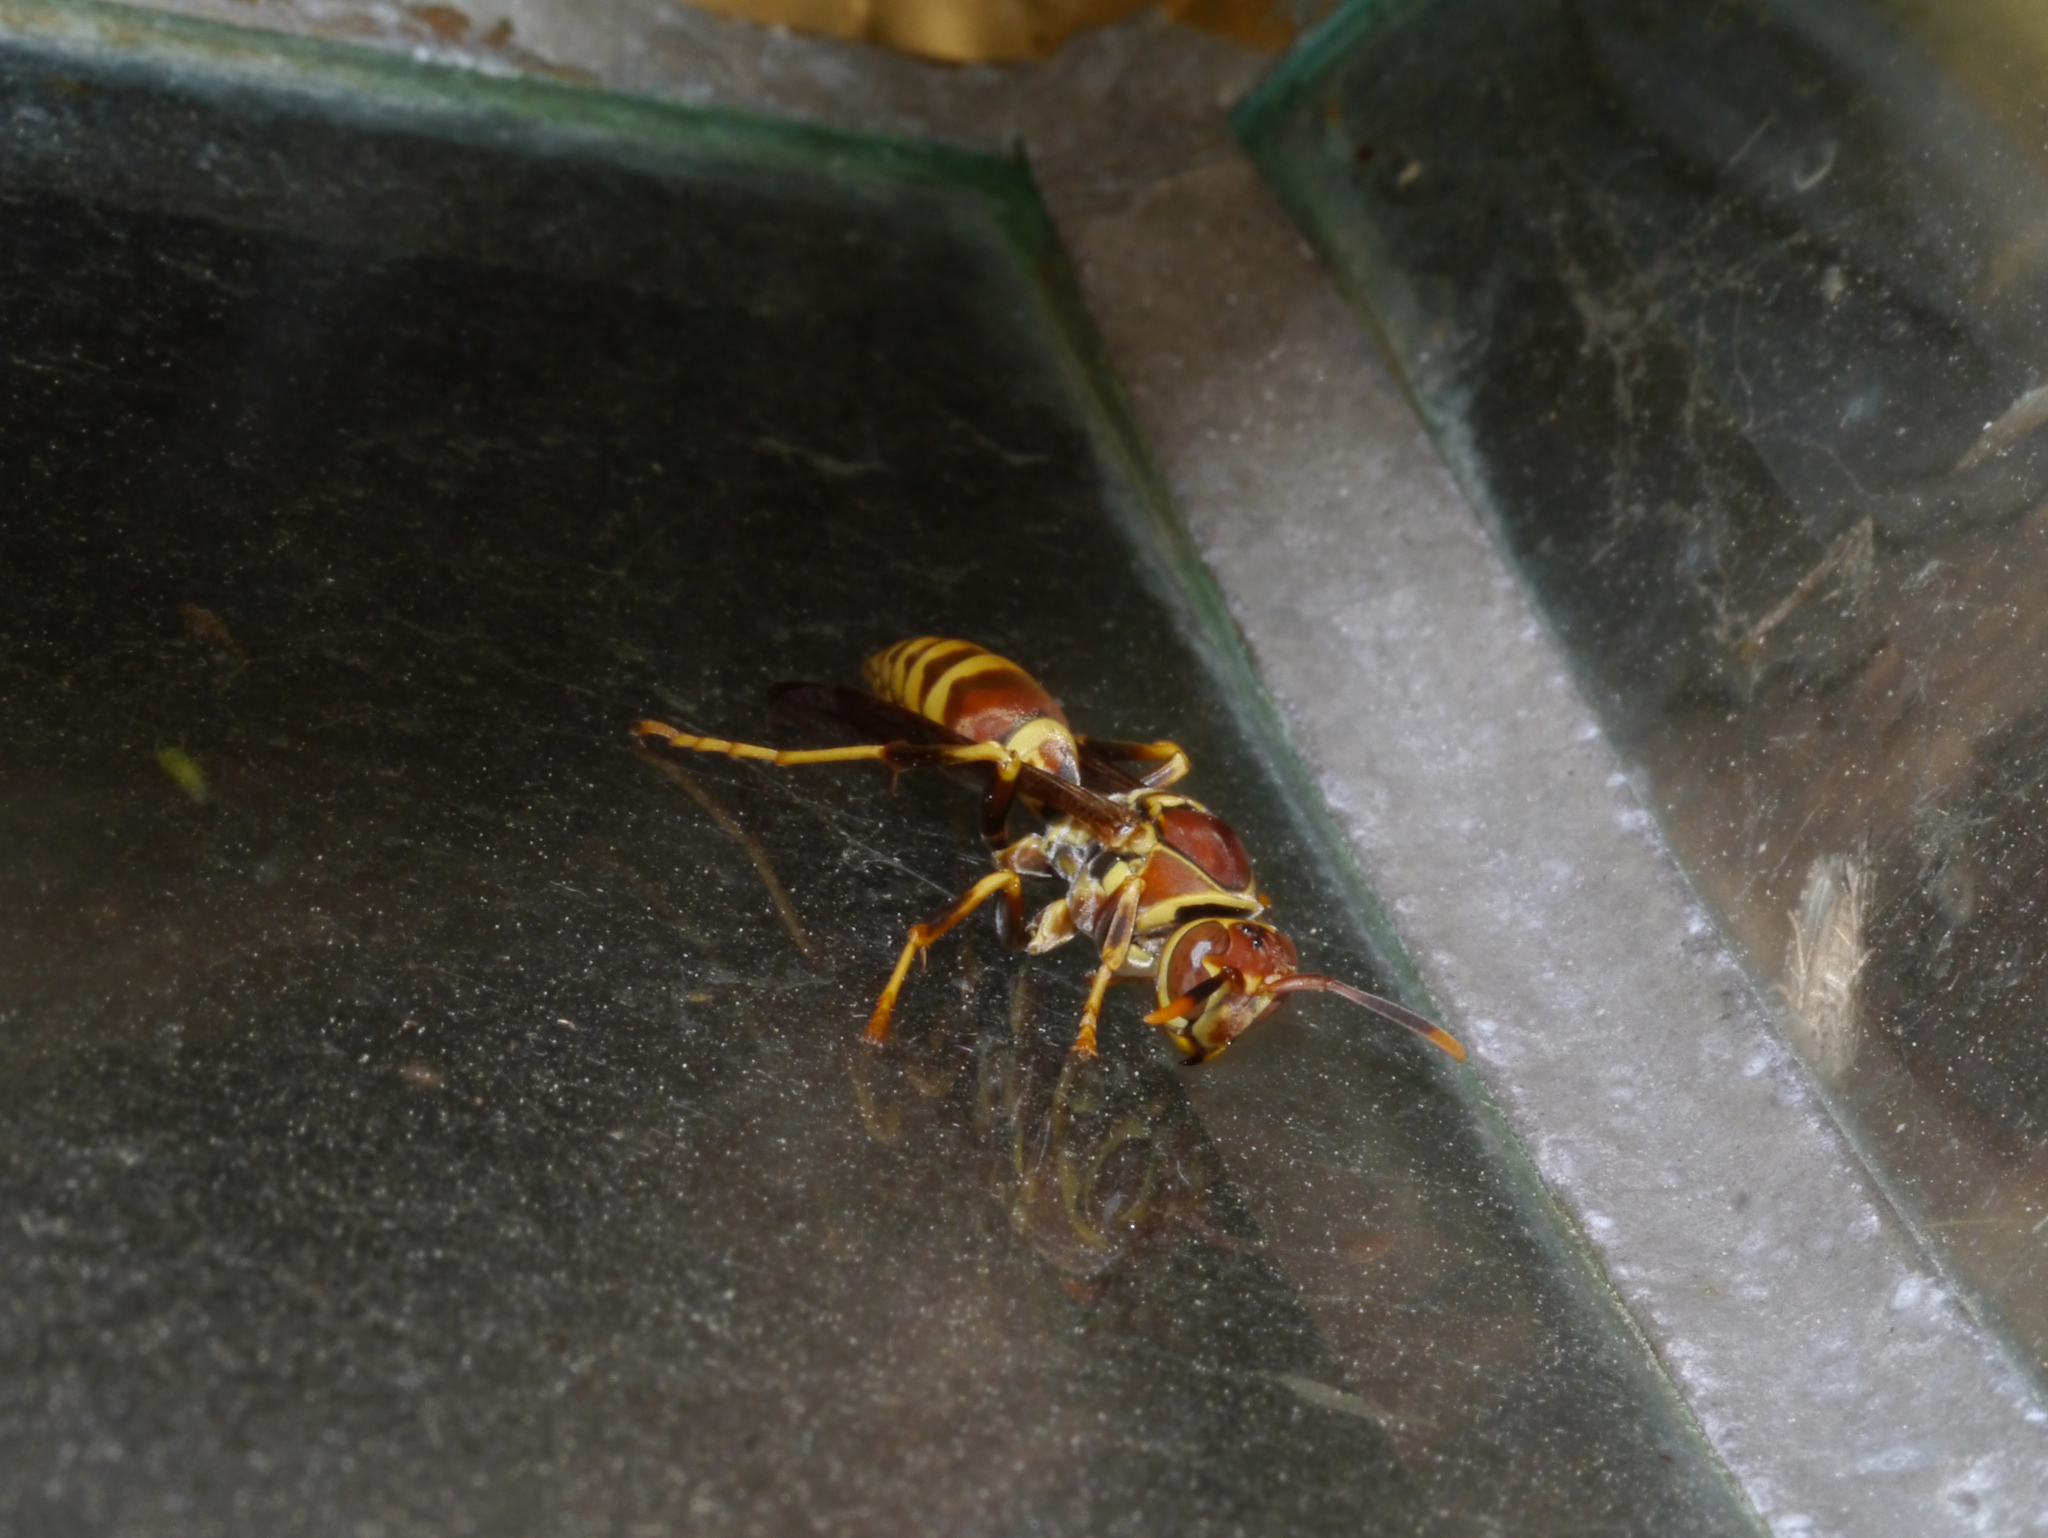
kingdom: Animalia
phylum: Arthropoda
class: Insecta
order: Hymenoptera
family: Eumenidae
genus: Polistes
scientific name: Polistes exclamans
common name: Paper wasp
